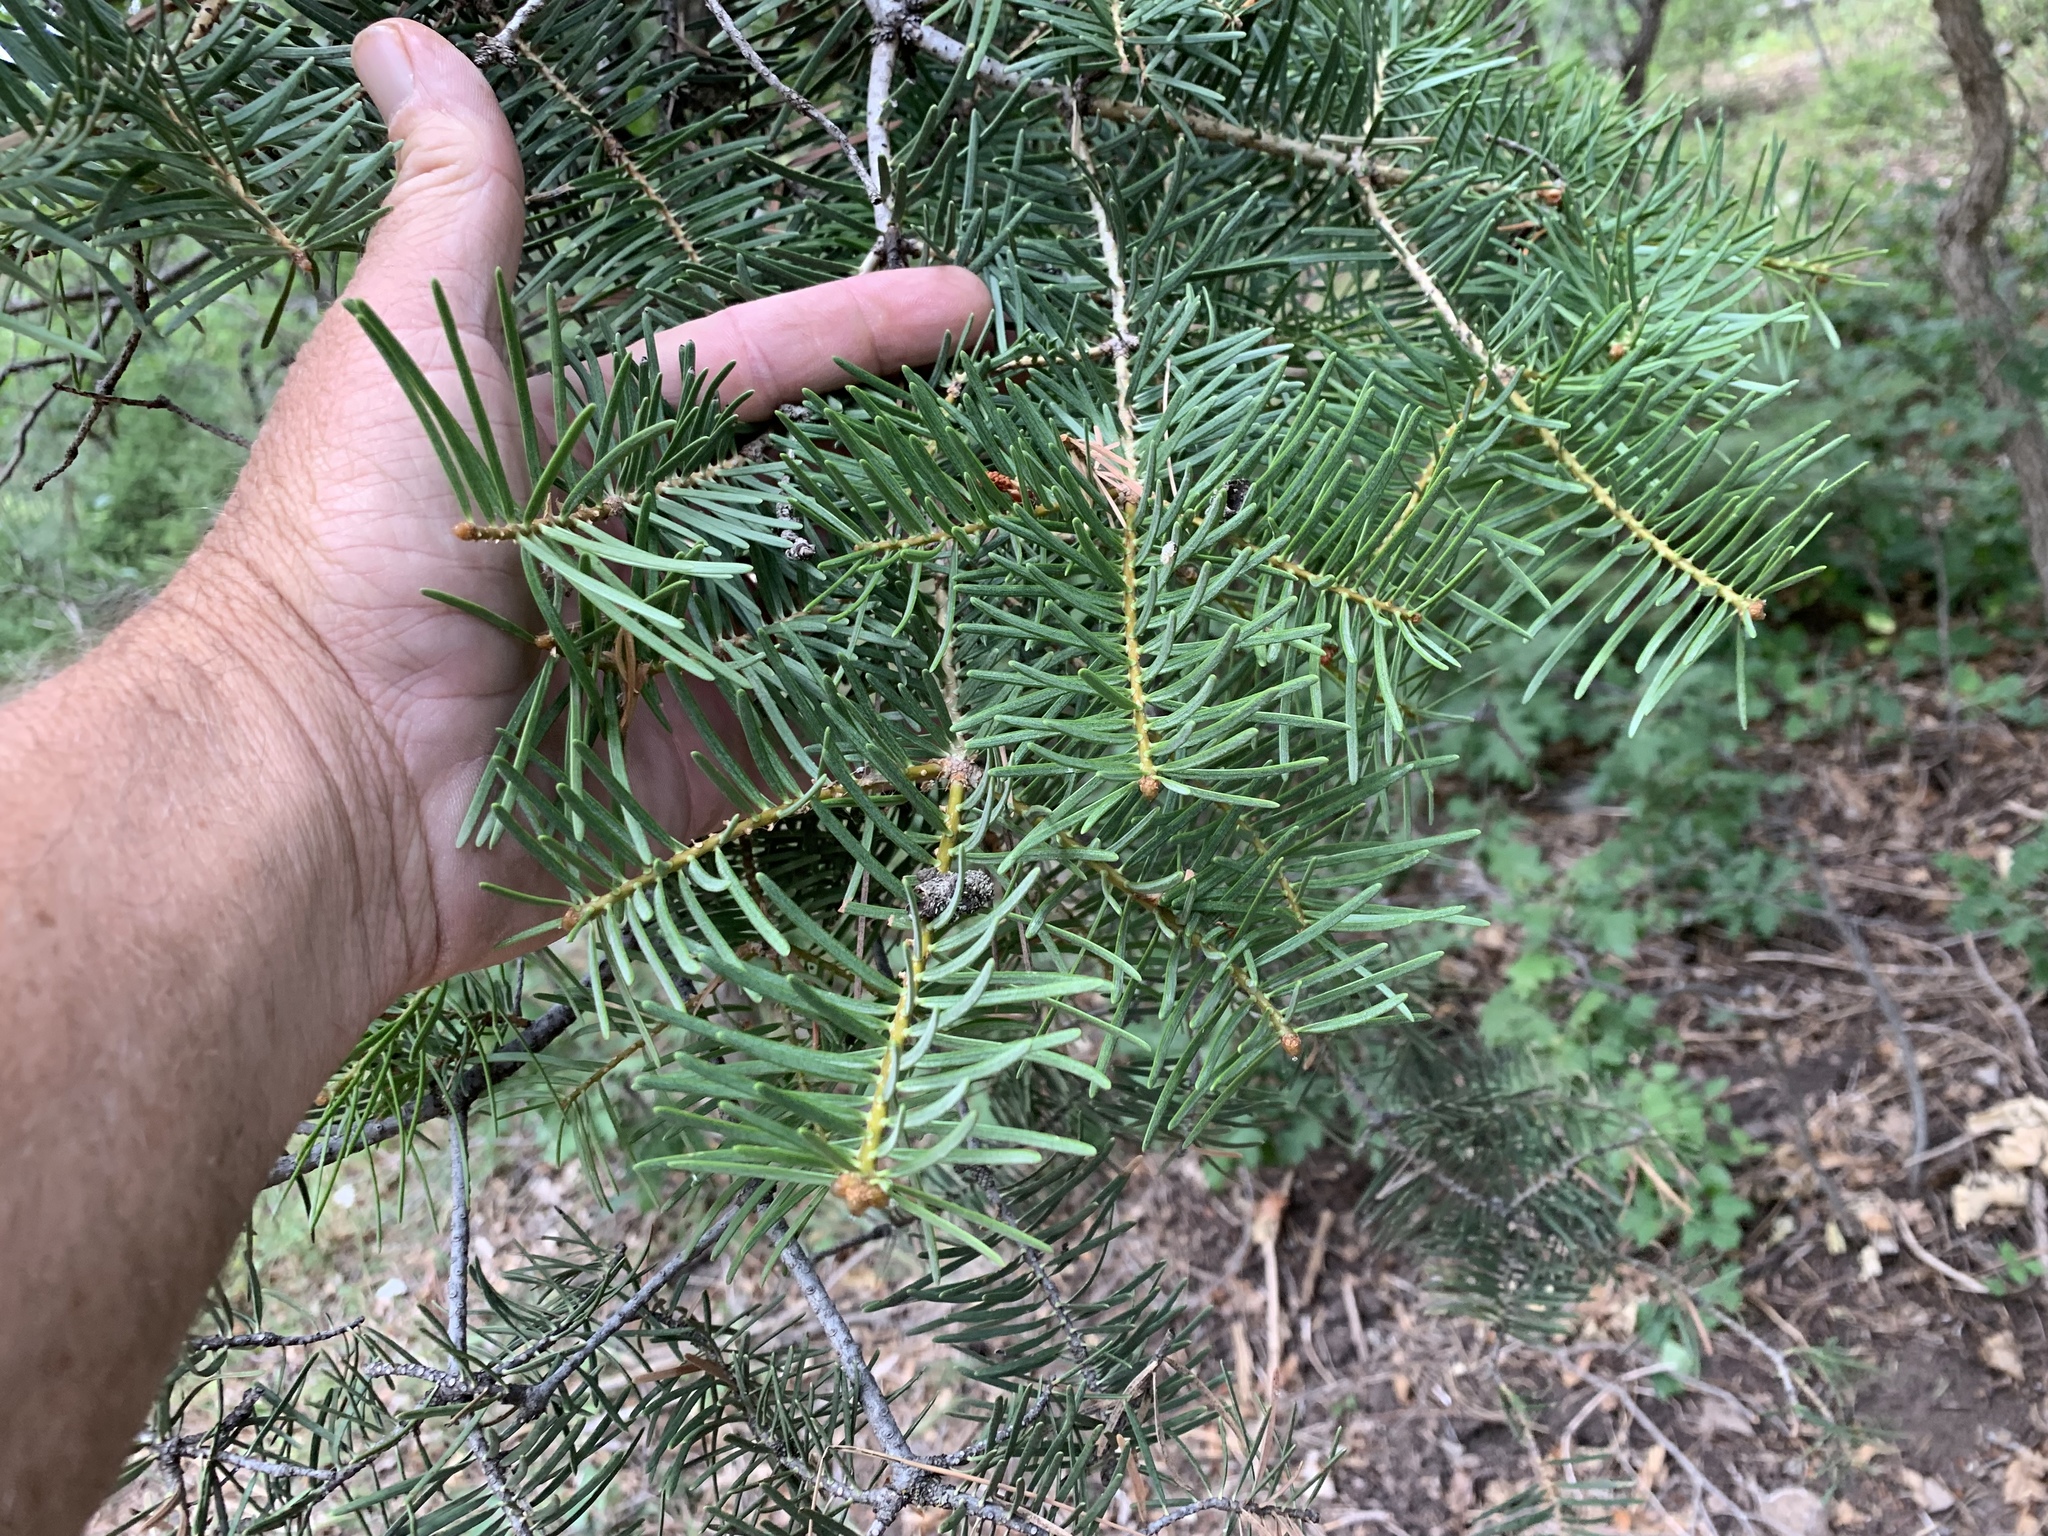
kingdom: Plantae
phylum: Tracheophyta
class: Pinopsida
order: Pinales
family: Pinaceae
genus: Abies
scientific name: Abies concolor
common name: Colorado fir
